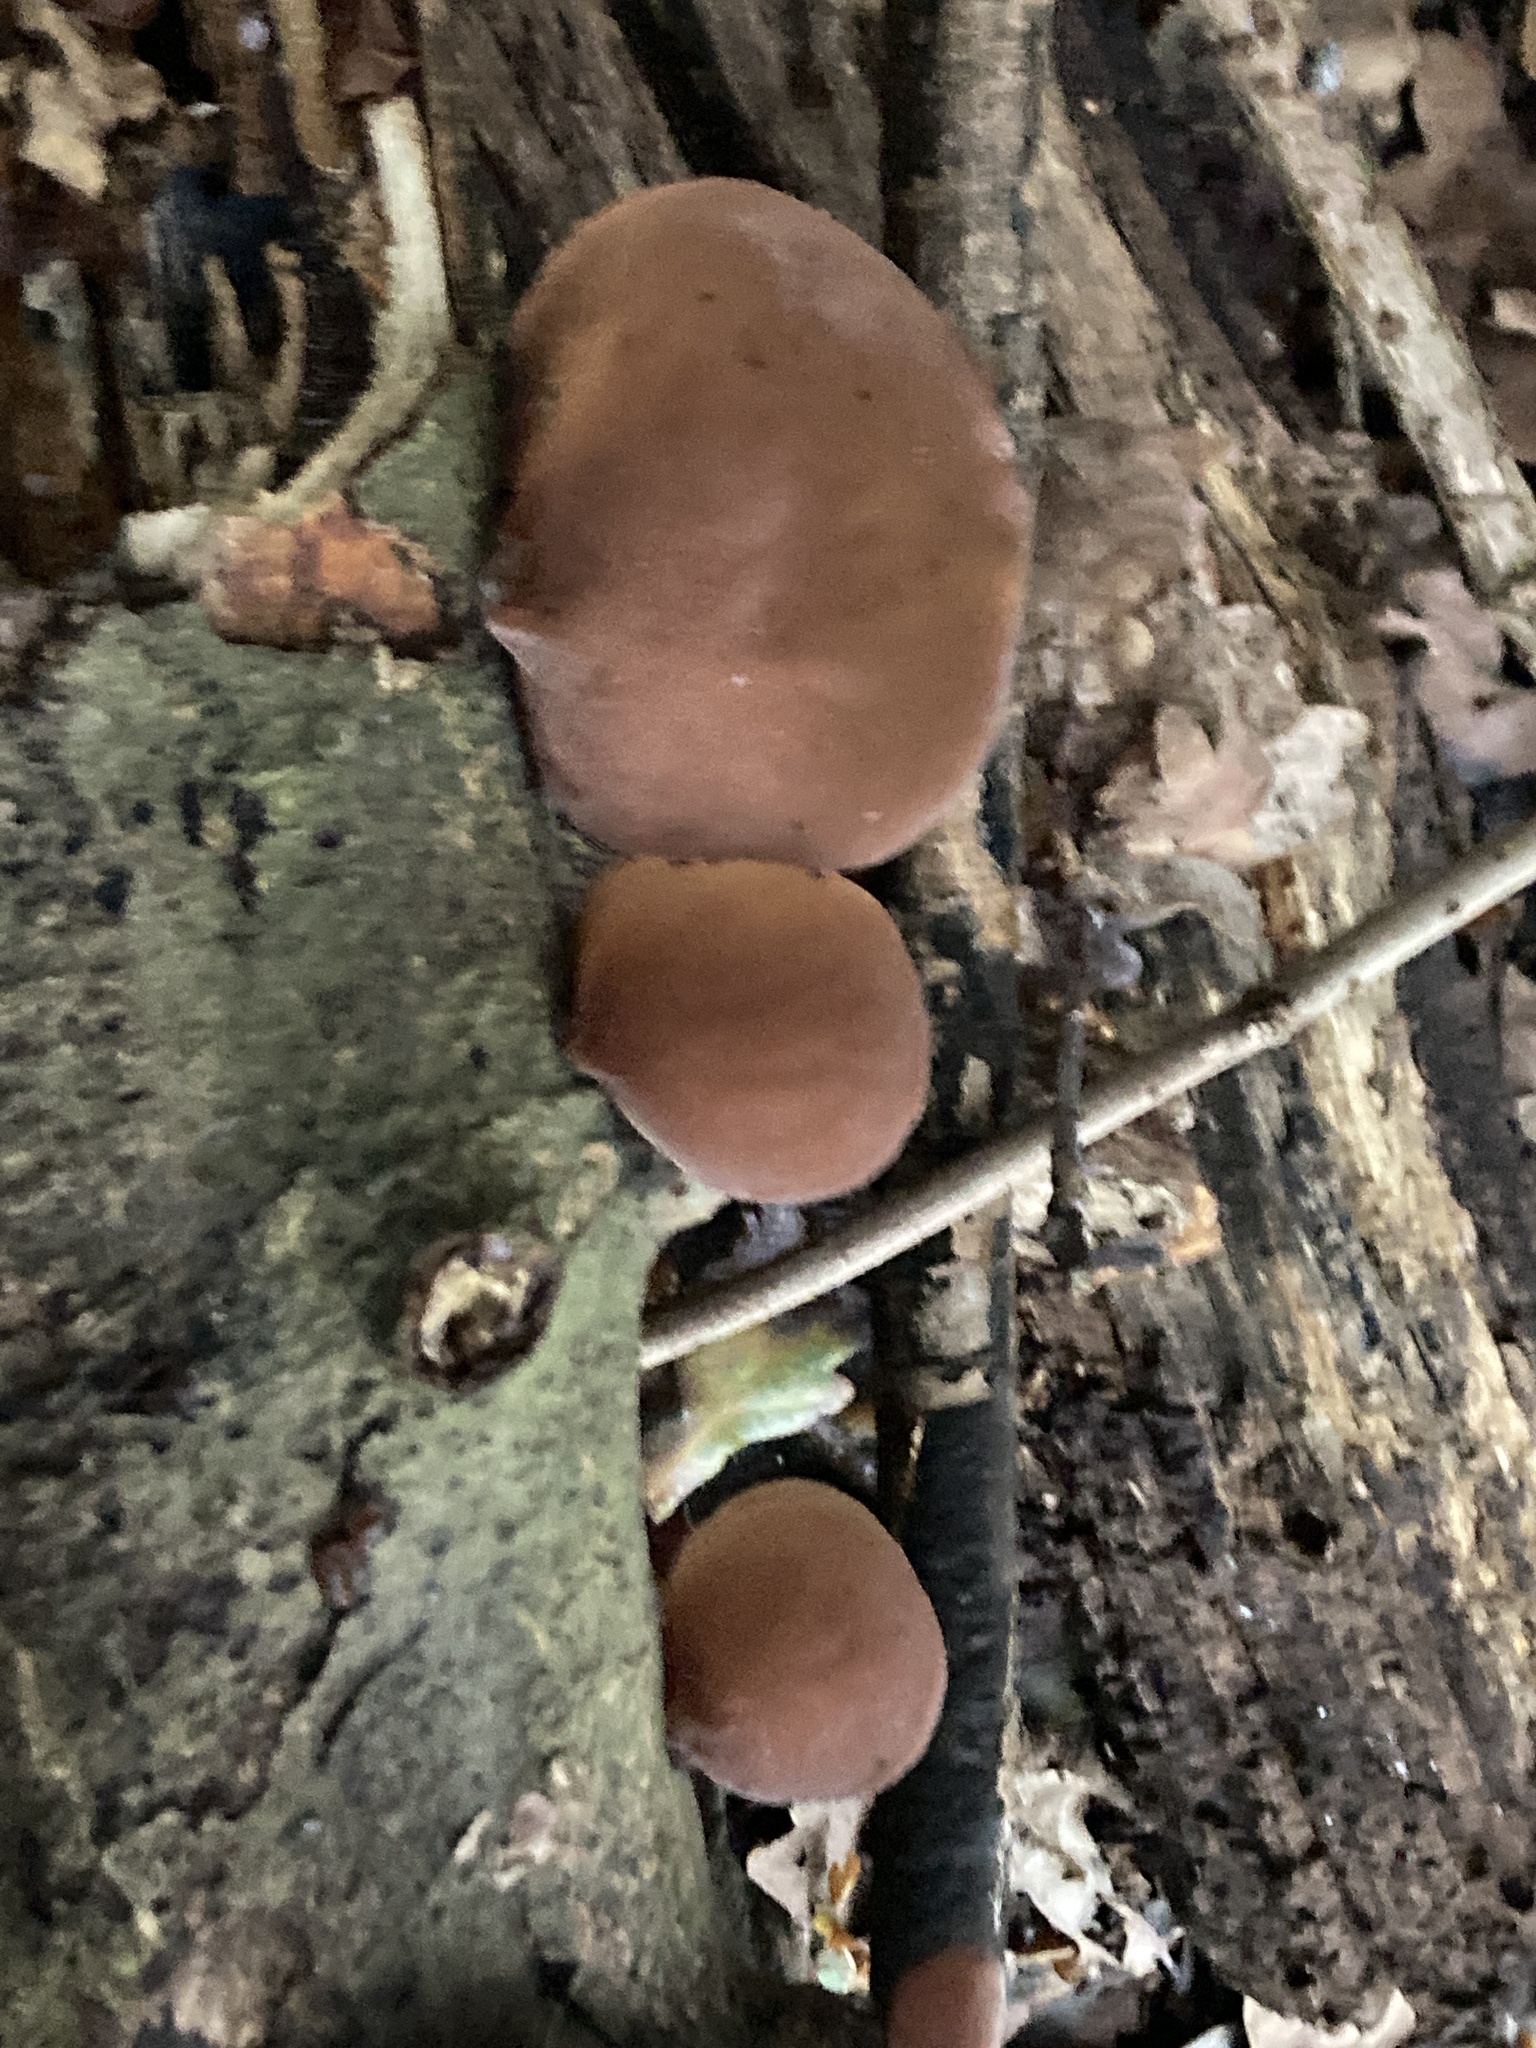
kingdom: Fungi
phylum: Basidiomycota
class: Agaricomycetes
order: Auriculariales
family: Auriculariaceae
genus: Auricularia
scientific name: Auricularia auricula-judae
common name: Jelly ear
